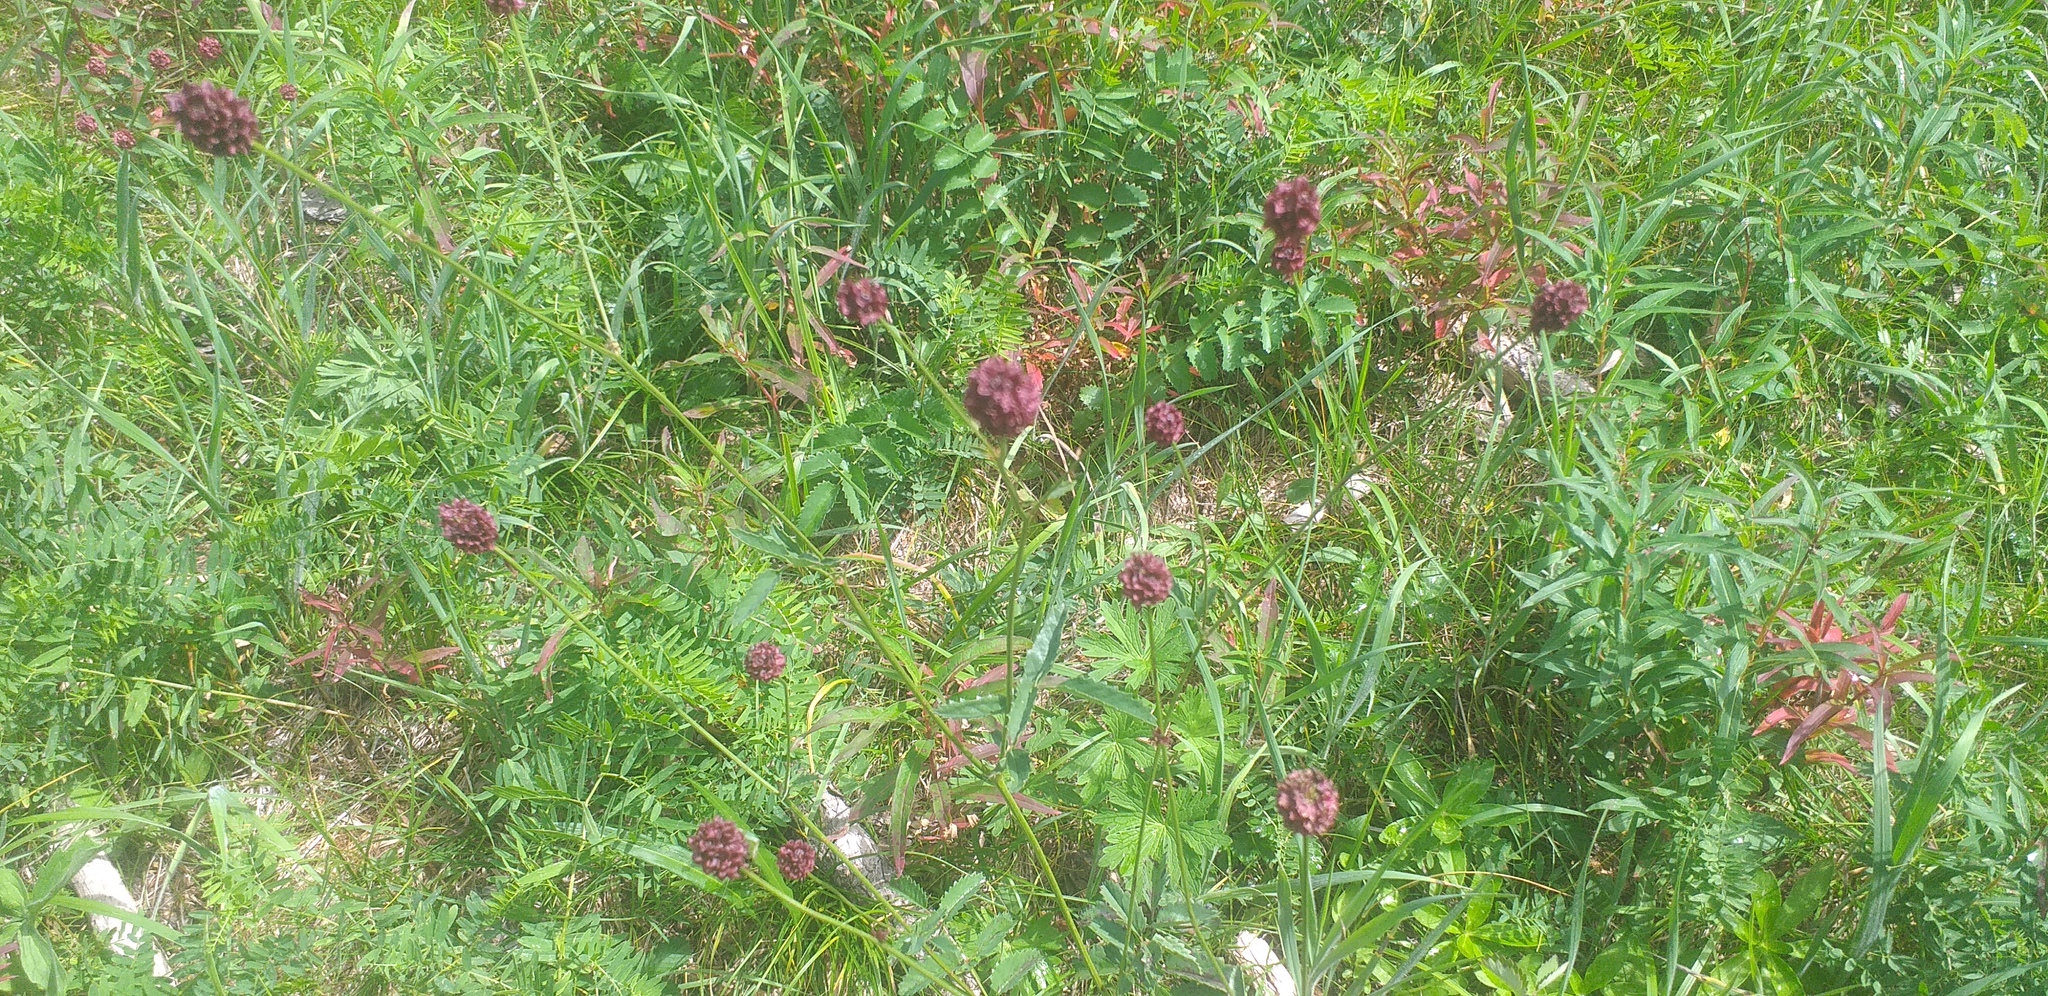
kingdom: Plantae
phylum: Tracheophyta
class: Magnoliopsida
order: Rosales
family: Rosaceae
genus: Sanguisorba
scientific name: Sanguisorba officinalis
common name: Great burnet
